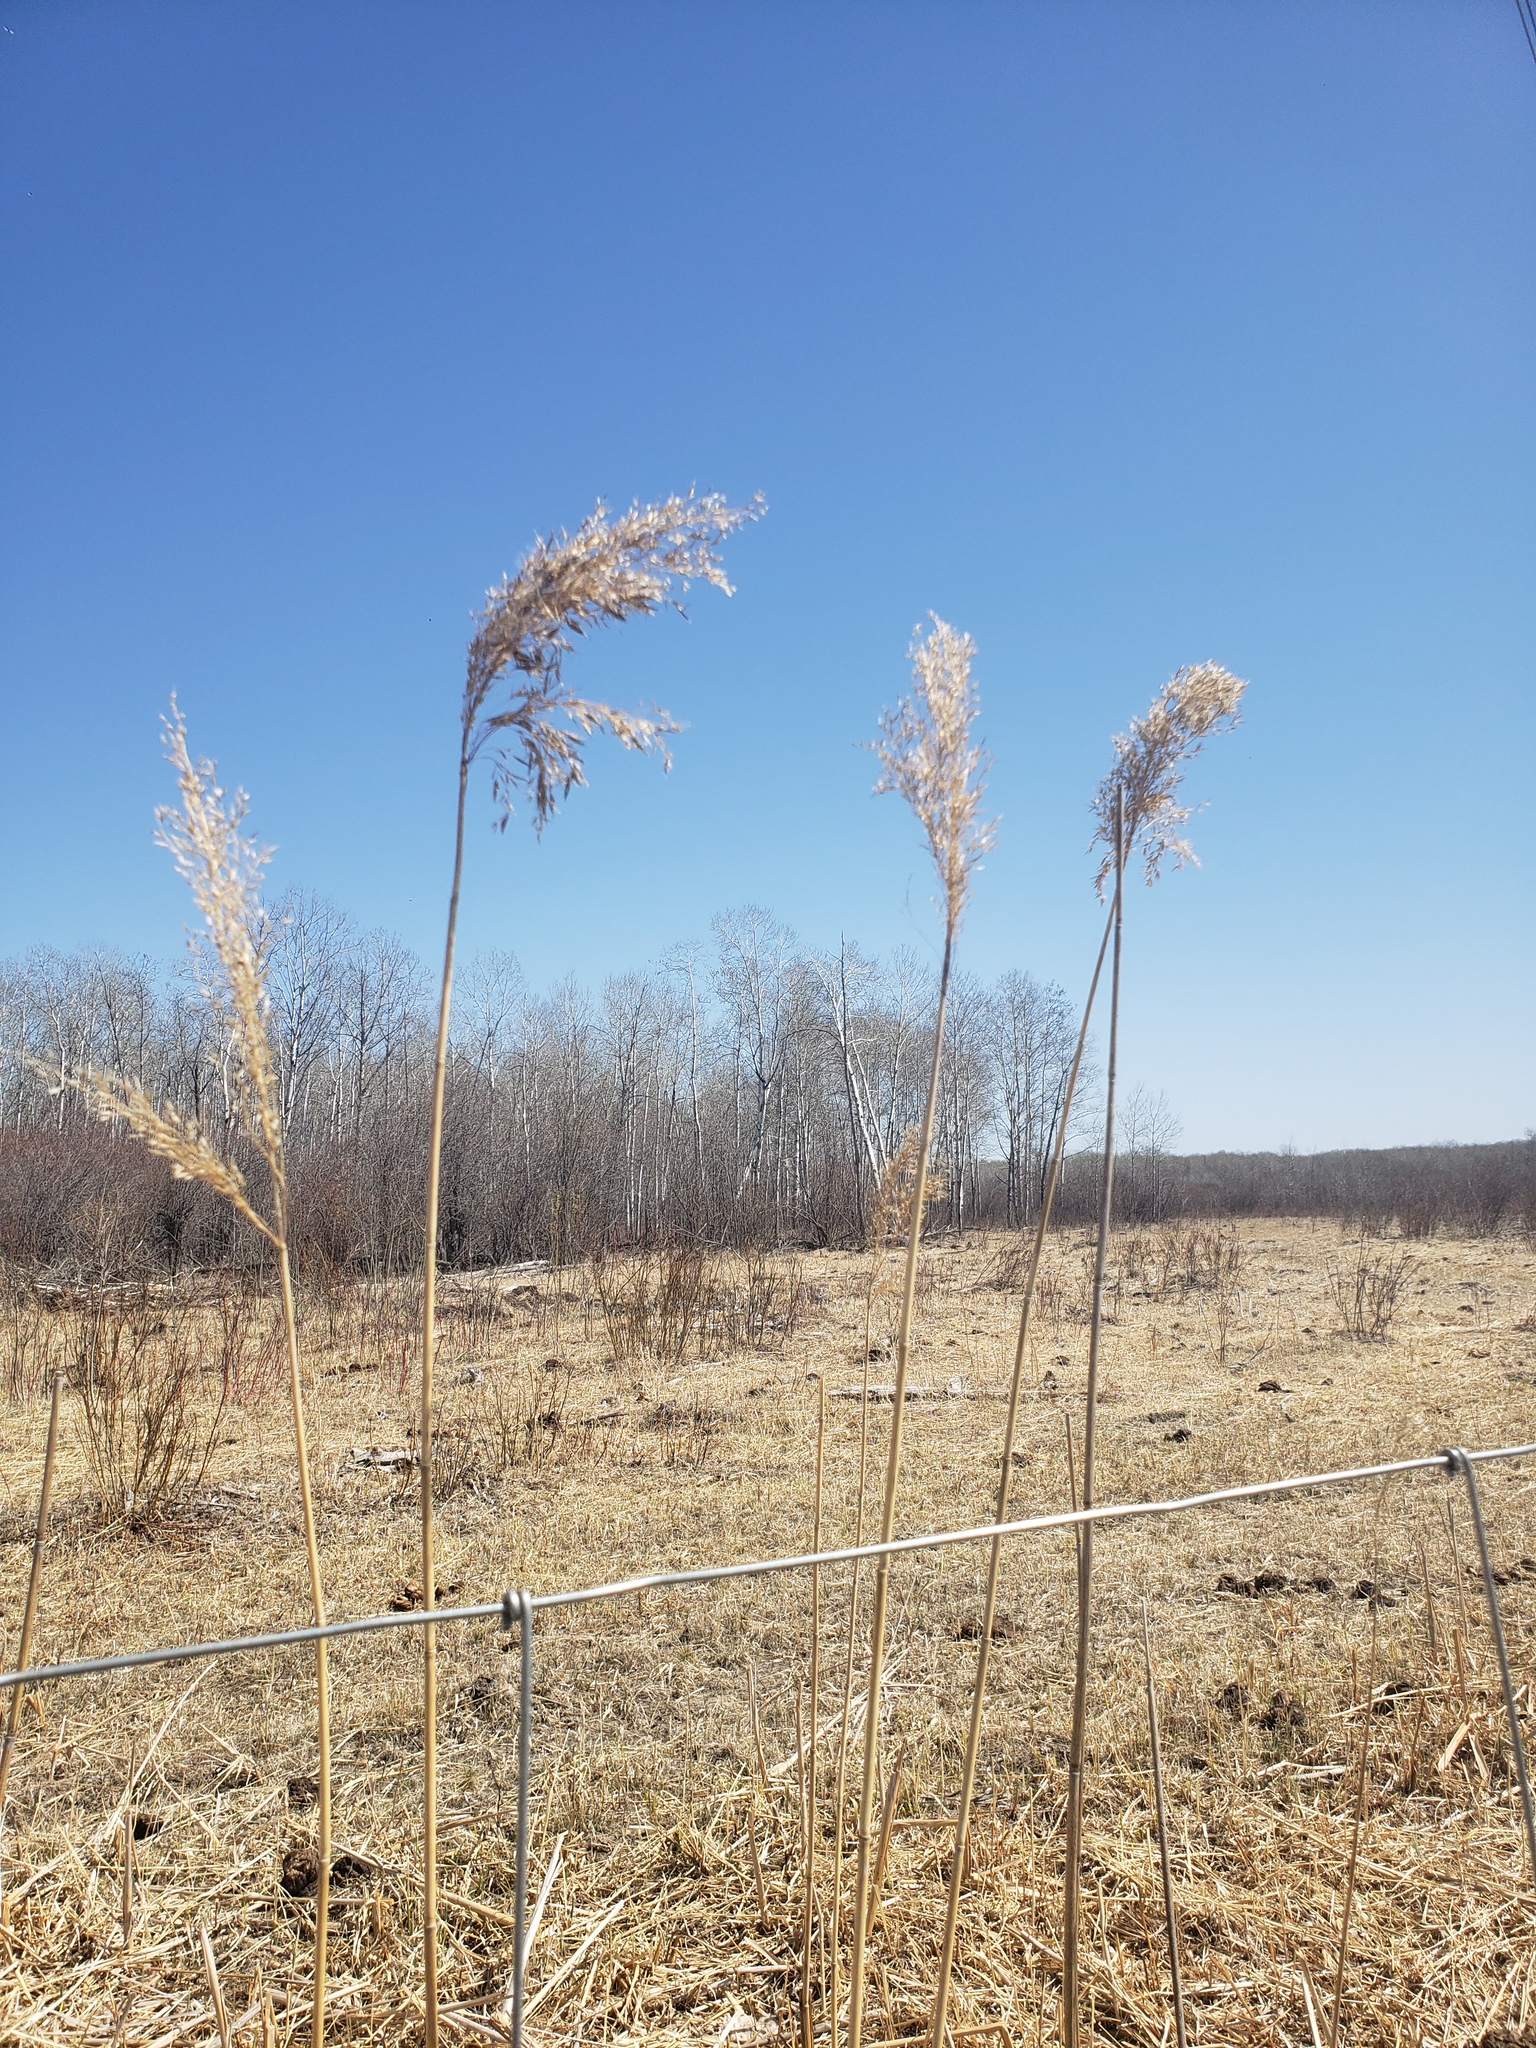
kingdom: Plantae
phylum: Tracheophyta
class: Liliopsida
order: Poales
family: Poaceae
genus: Phragmites
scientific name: Phragmites australis
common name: Common reed
